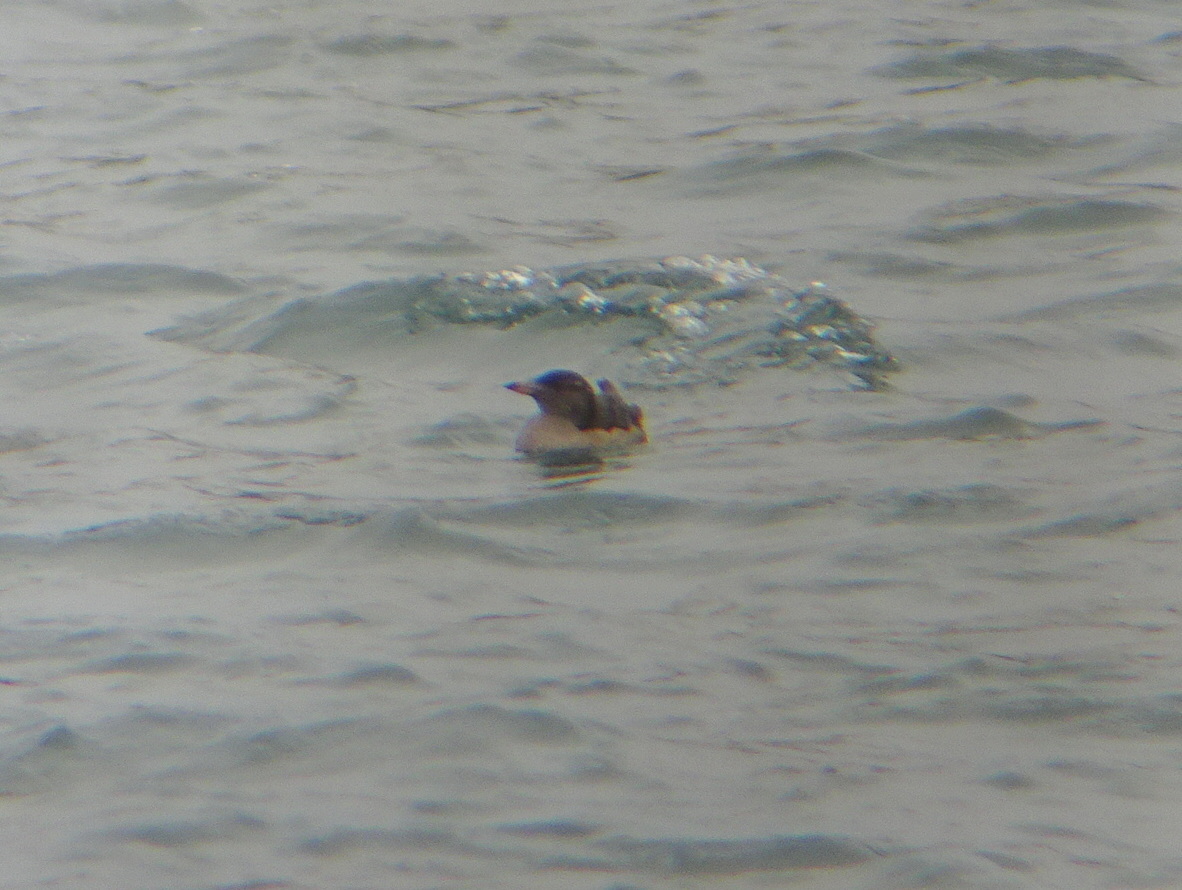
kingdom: Animalia
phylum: Chordata
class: Aves
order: Charadriiformes
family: Alcidae
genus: Cerorhinca
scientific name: Cerorhinca monocerata
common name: Rhinoceros auklet
